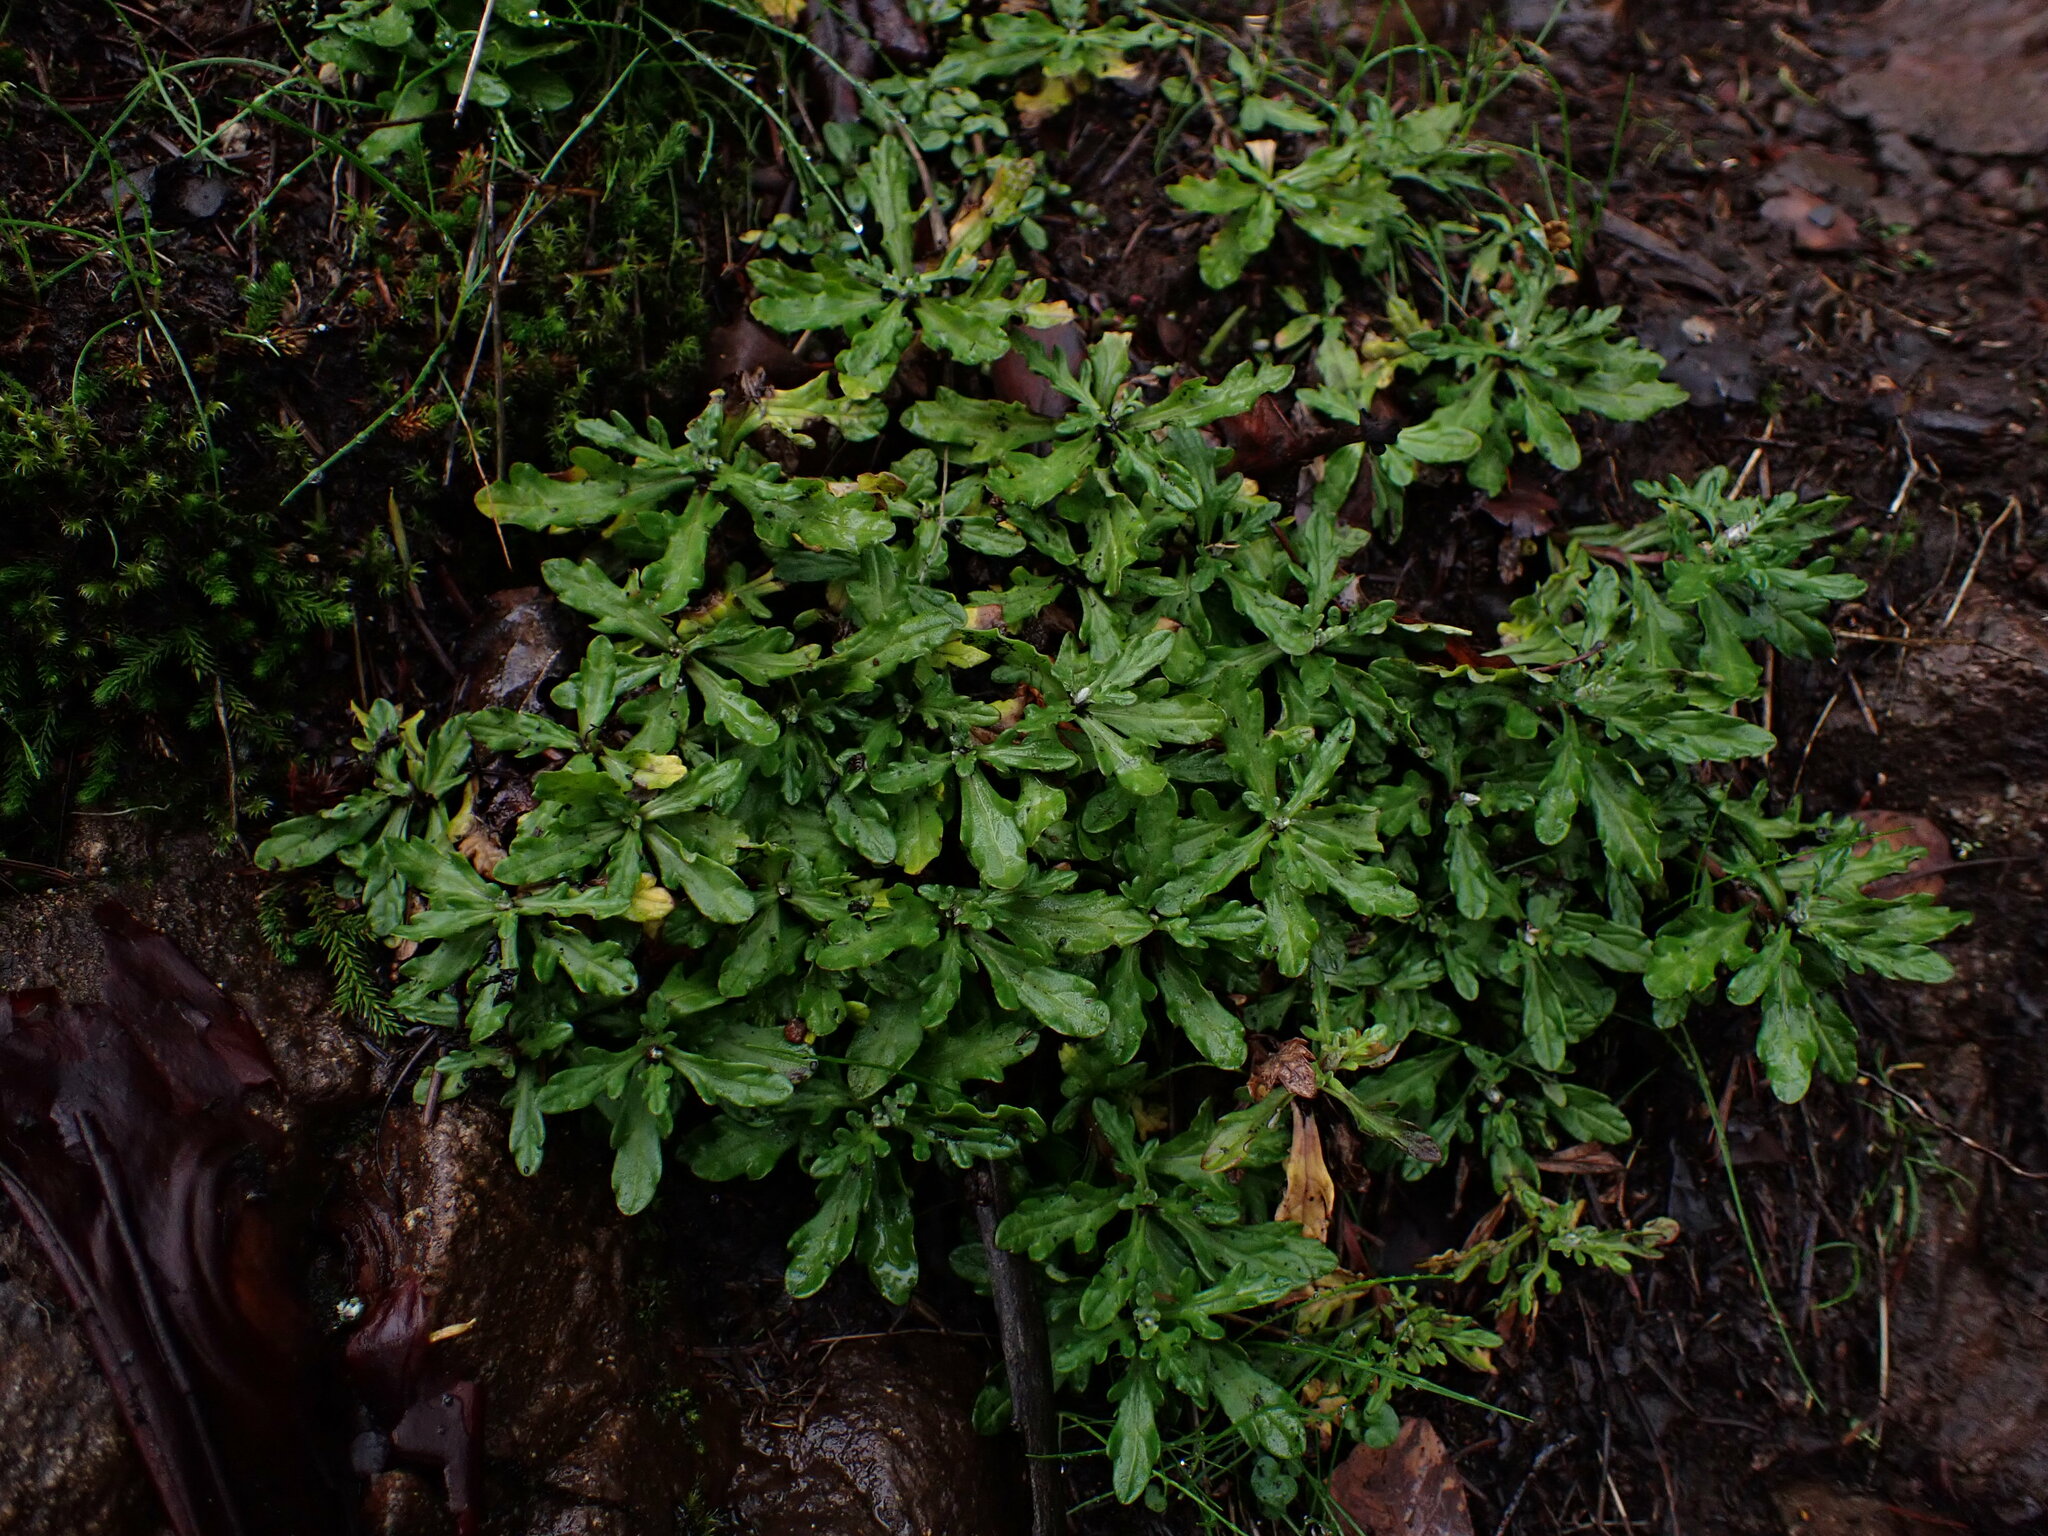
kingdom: Plantae
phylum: Tracheophyta
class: Magnoliopsida
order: Asterales
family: Asteraceae
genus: Eriophyllum
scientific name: Eriophyllum lanatum
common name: Common woolly-sunflower
